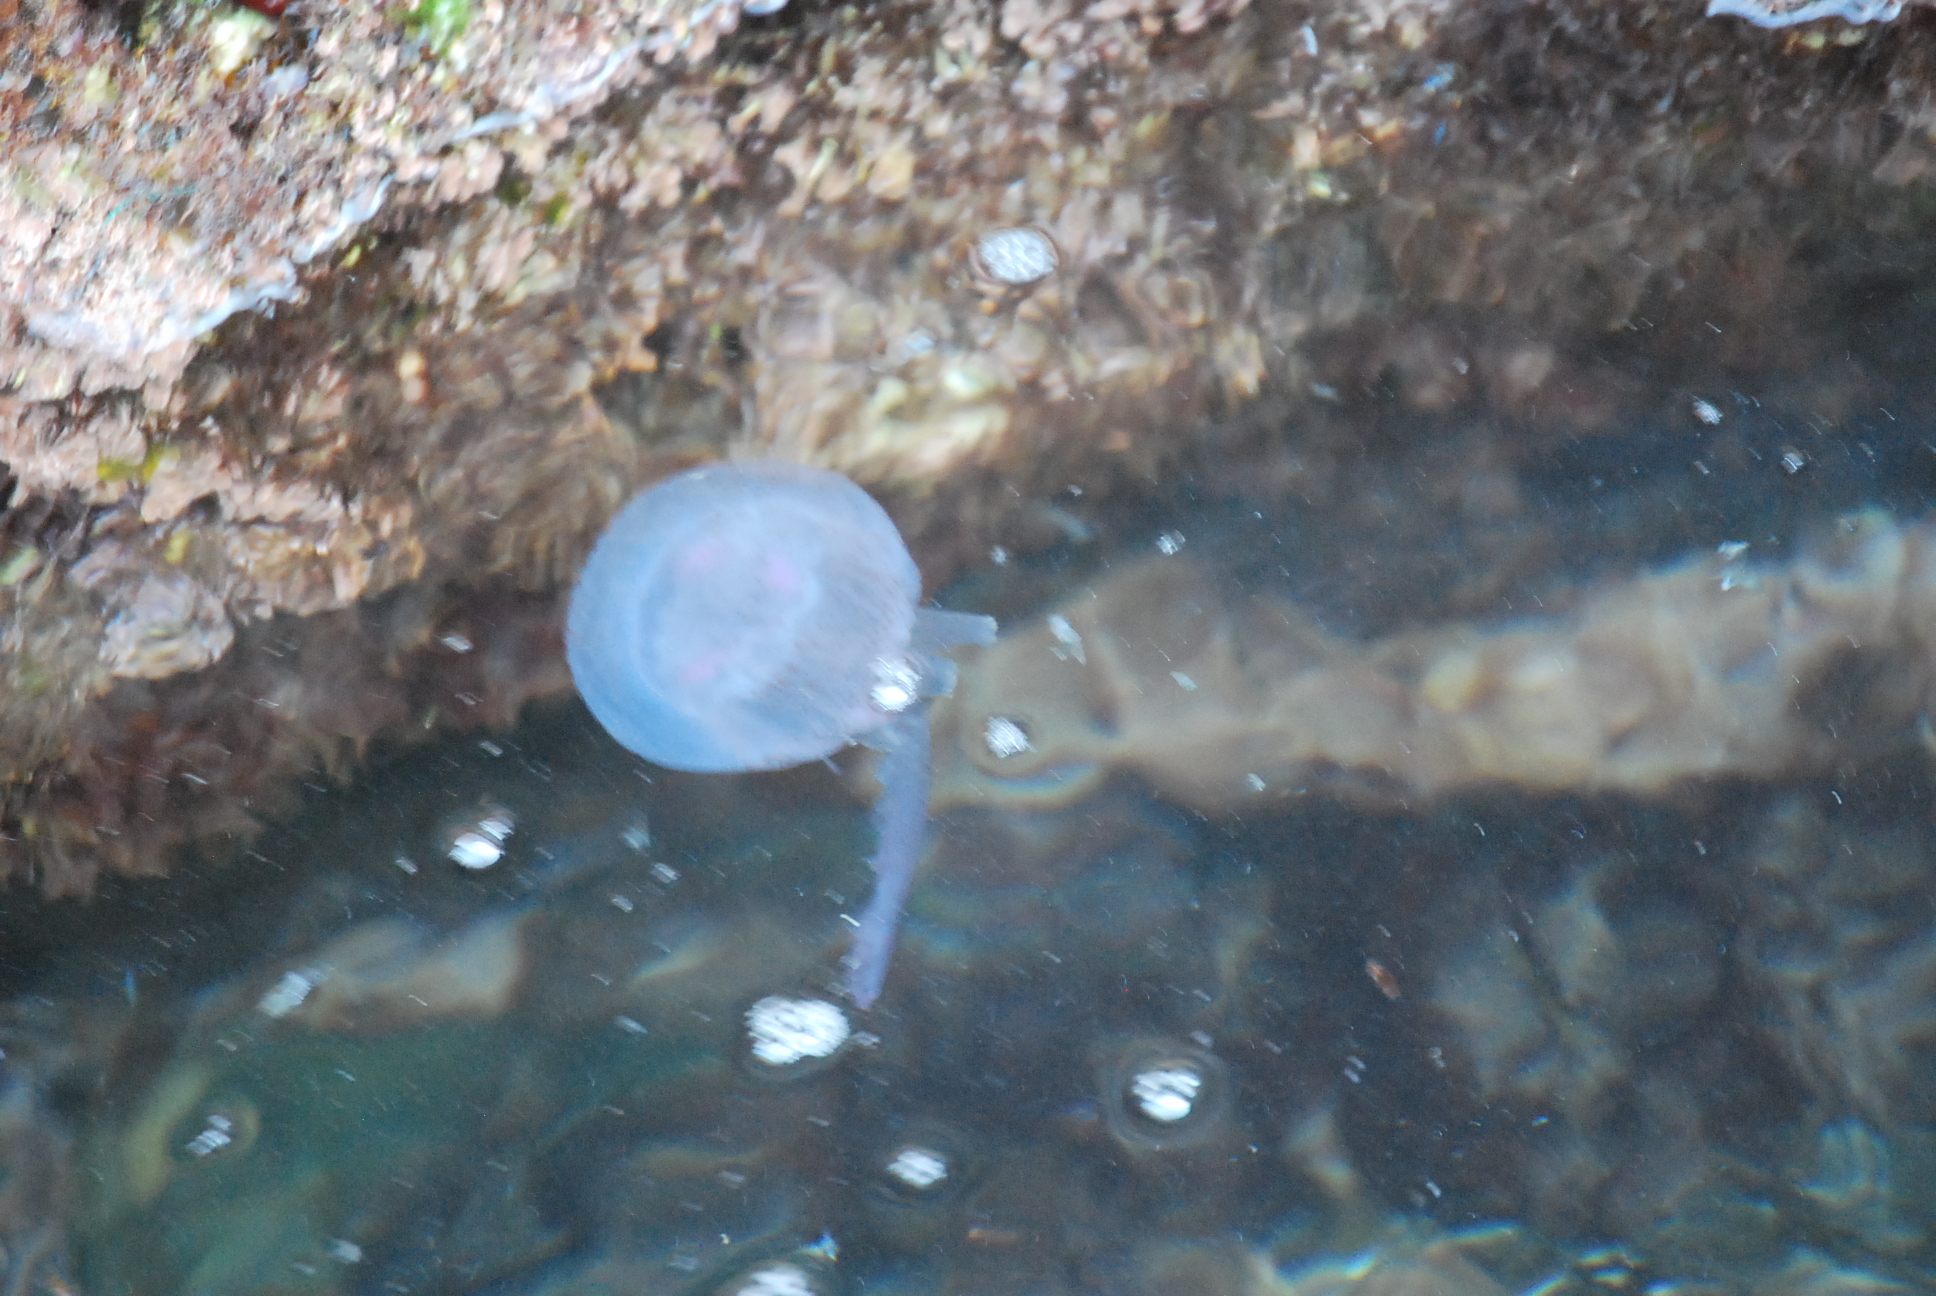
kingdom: Animalia
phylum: Cnidaria
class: Scyphozoa
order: Semaeostomeae
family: Pelagiidae
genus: Pelagia
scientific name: Pelagia noctiluca
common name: Mauve stinger
